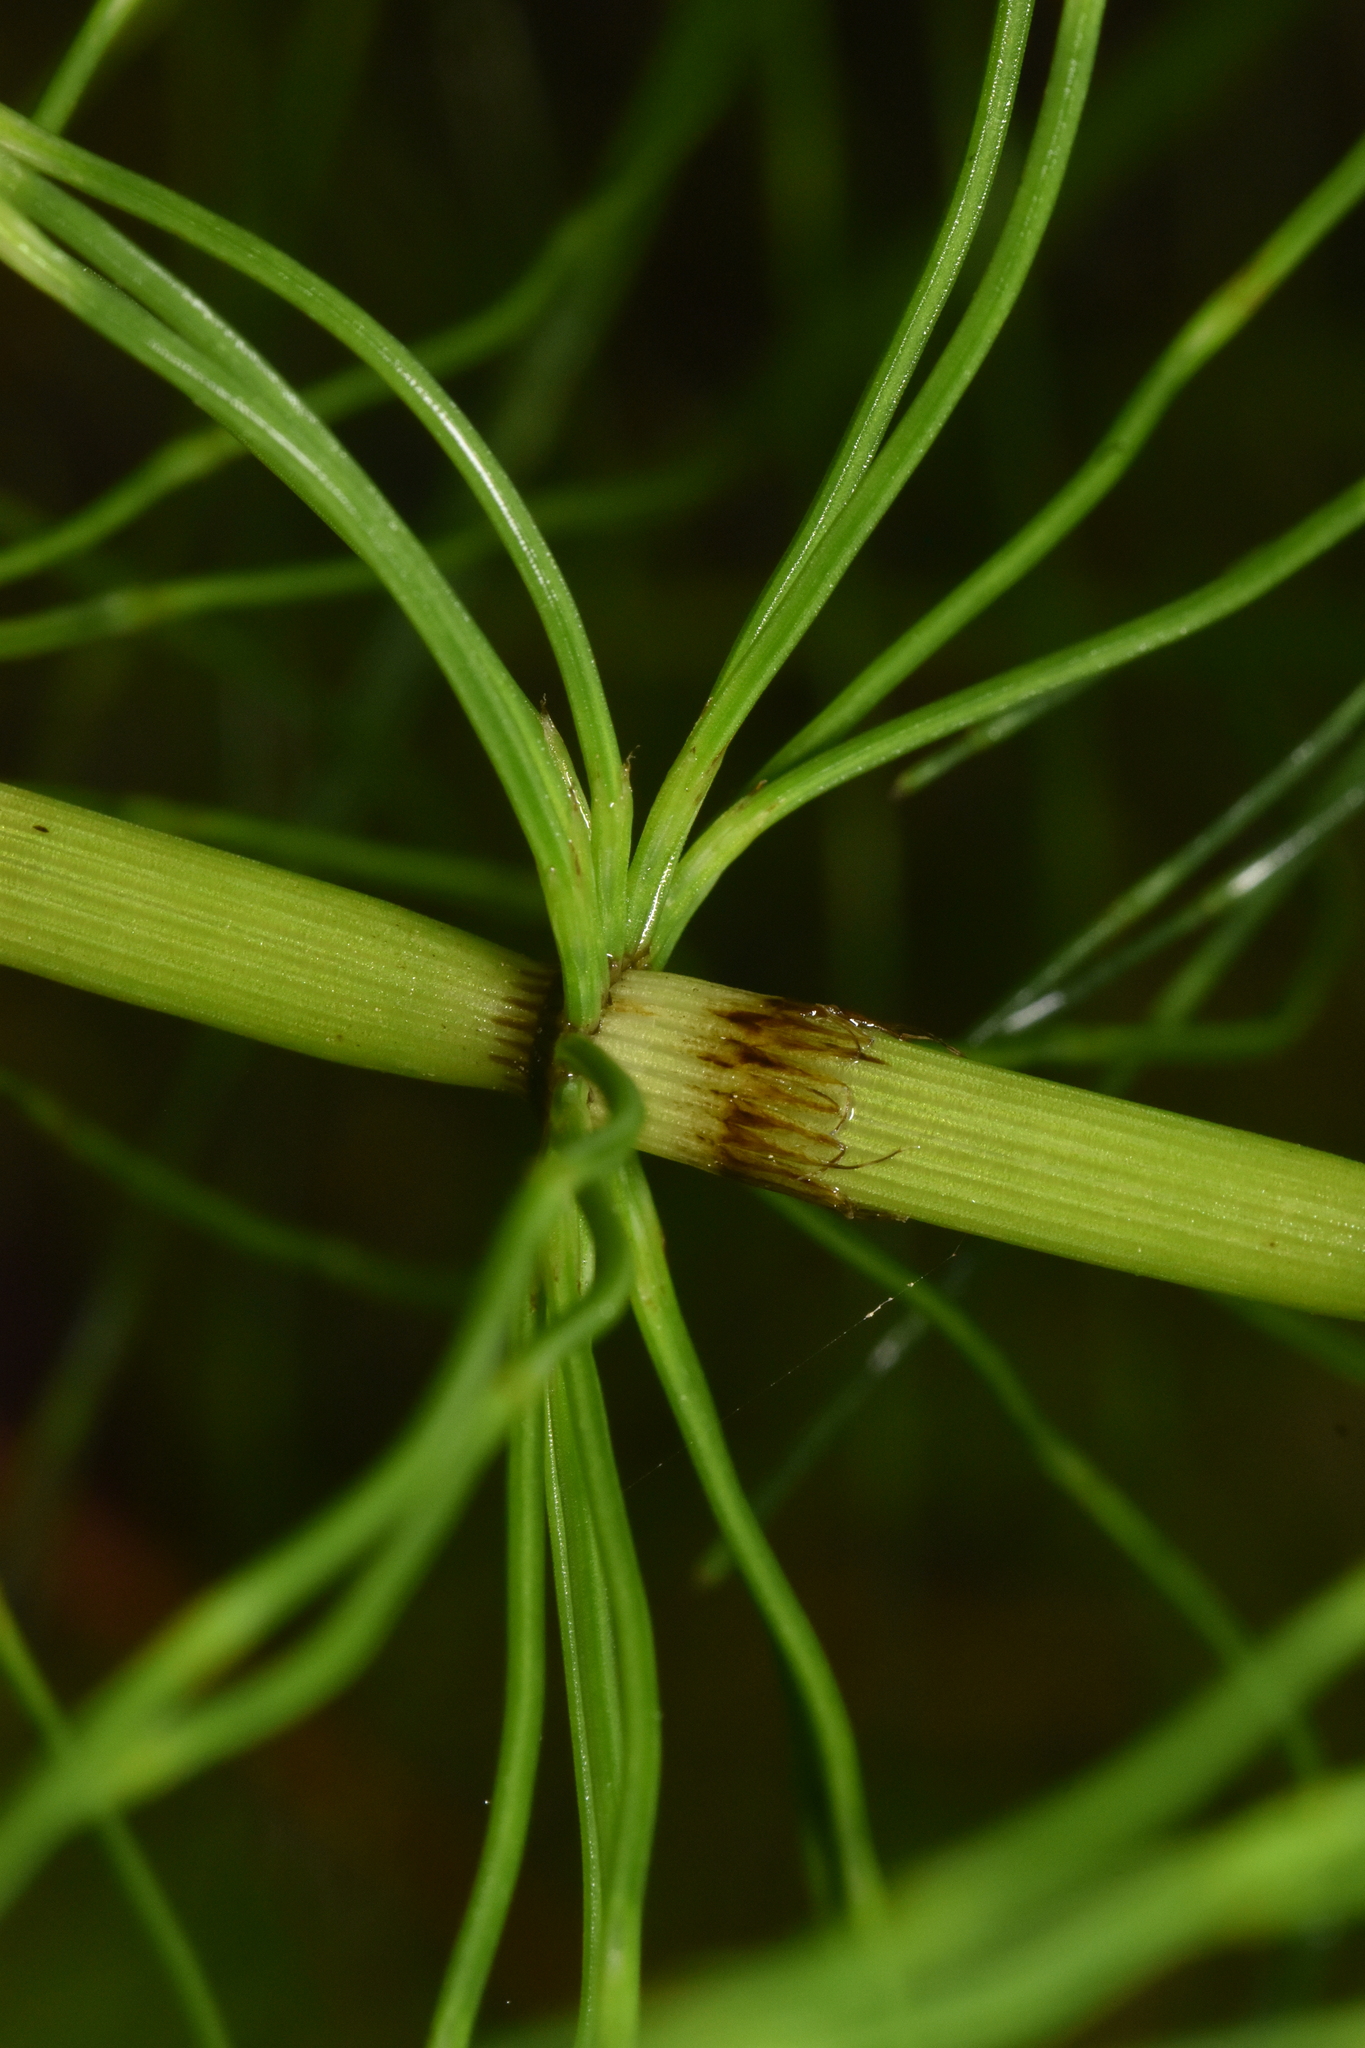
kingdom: Plantae
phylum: Tracheophyta
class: Polypodiopsida
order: Equisetales
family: Equisetaceae
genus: Equisetum
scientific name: Equisetum braunii
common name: Braun's horsetail
